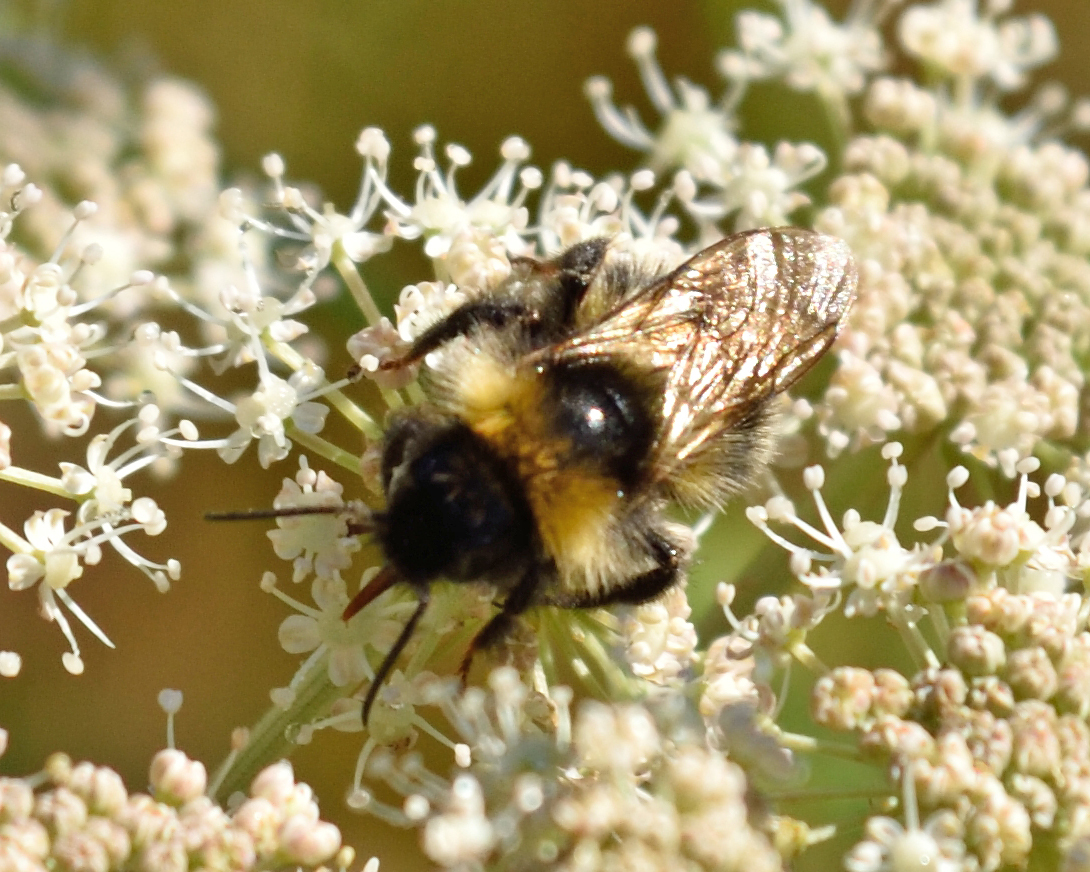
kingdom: Animalia
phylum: Arthropoda
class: Insecta
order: Hymenoptera
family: Apidae
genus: Bombus
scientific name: Bombus
